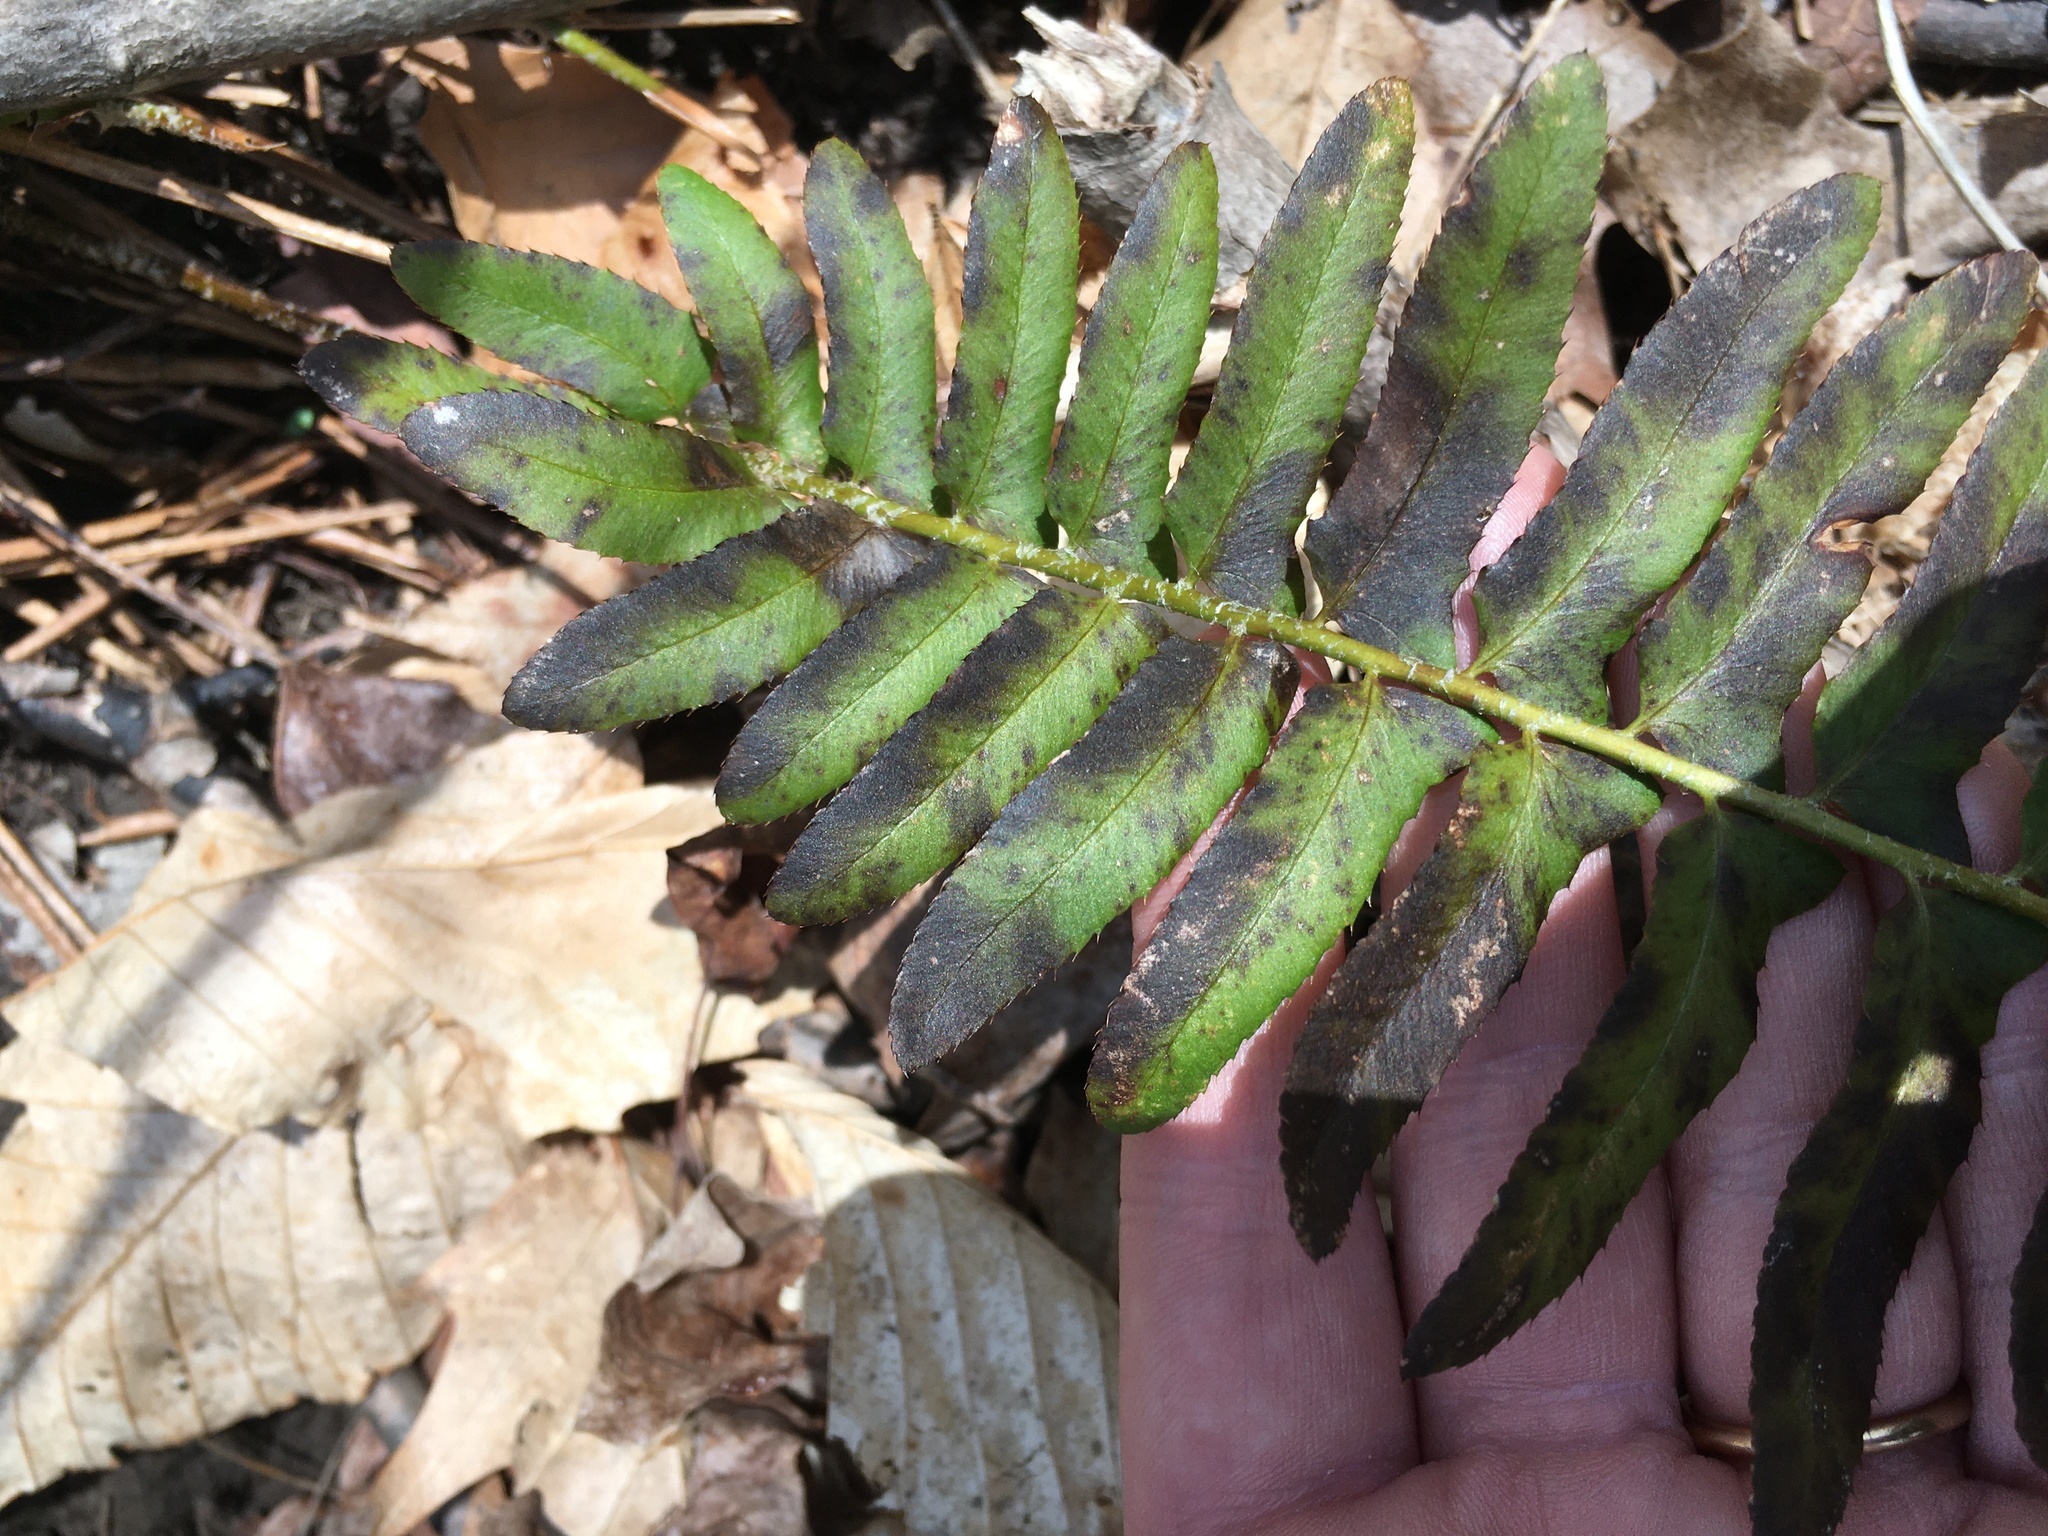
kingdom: Plantae
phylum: Tracheophyta
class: Polypodiopsida
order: Polypodiales
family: Dryopteridaceae
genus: Polystichum
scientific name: Polystichum acrostichoides
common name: Christmas fern
